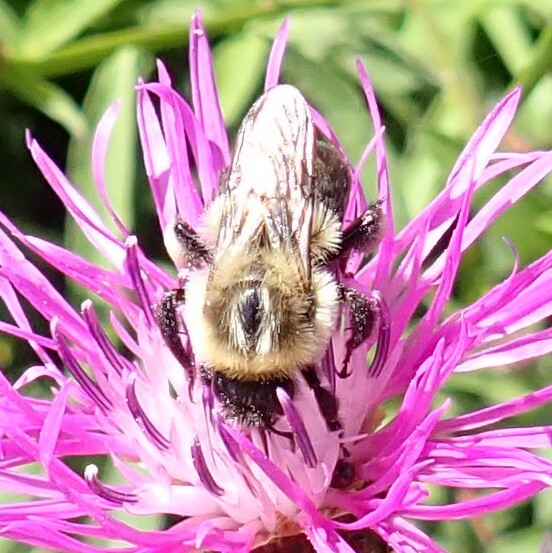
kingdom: Animalia
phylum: Arthropoda
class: Insecta
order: Hymenoptera
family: Apidae
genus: Bombus
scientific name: Bombus impatiens
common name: Common eastern bumble bee
